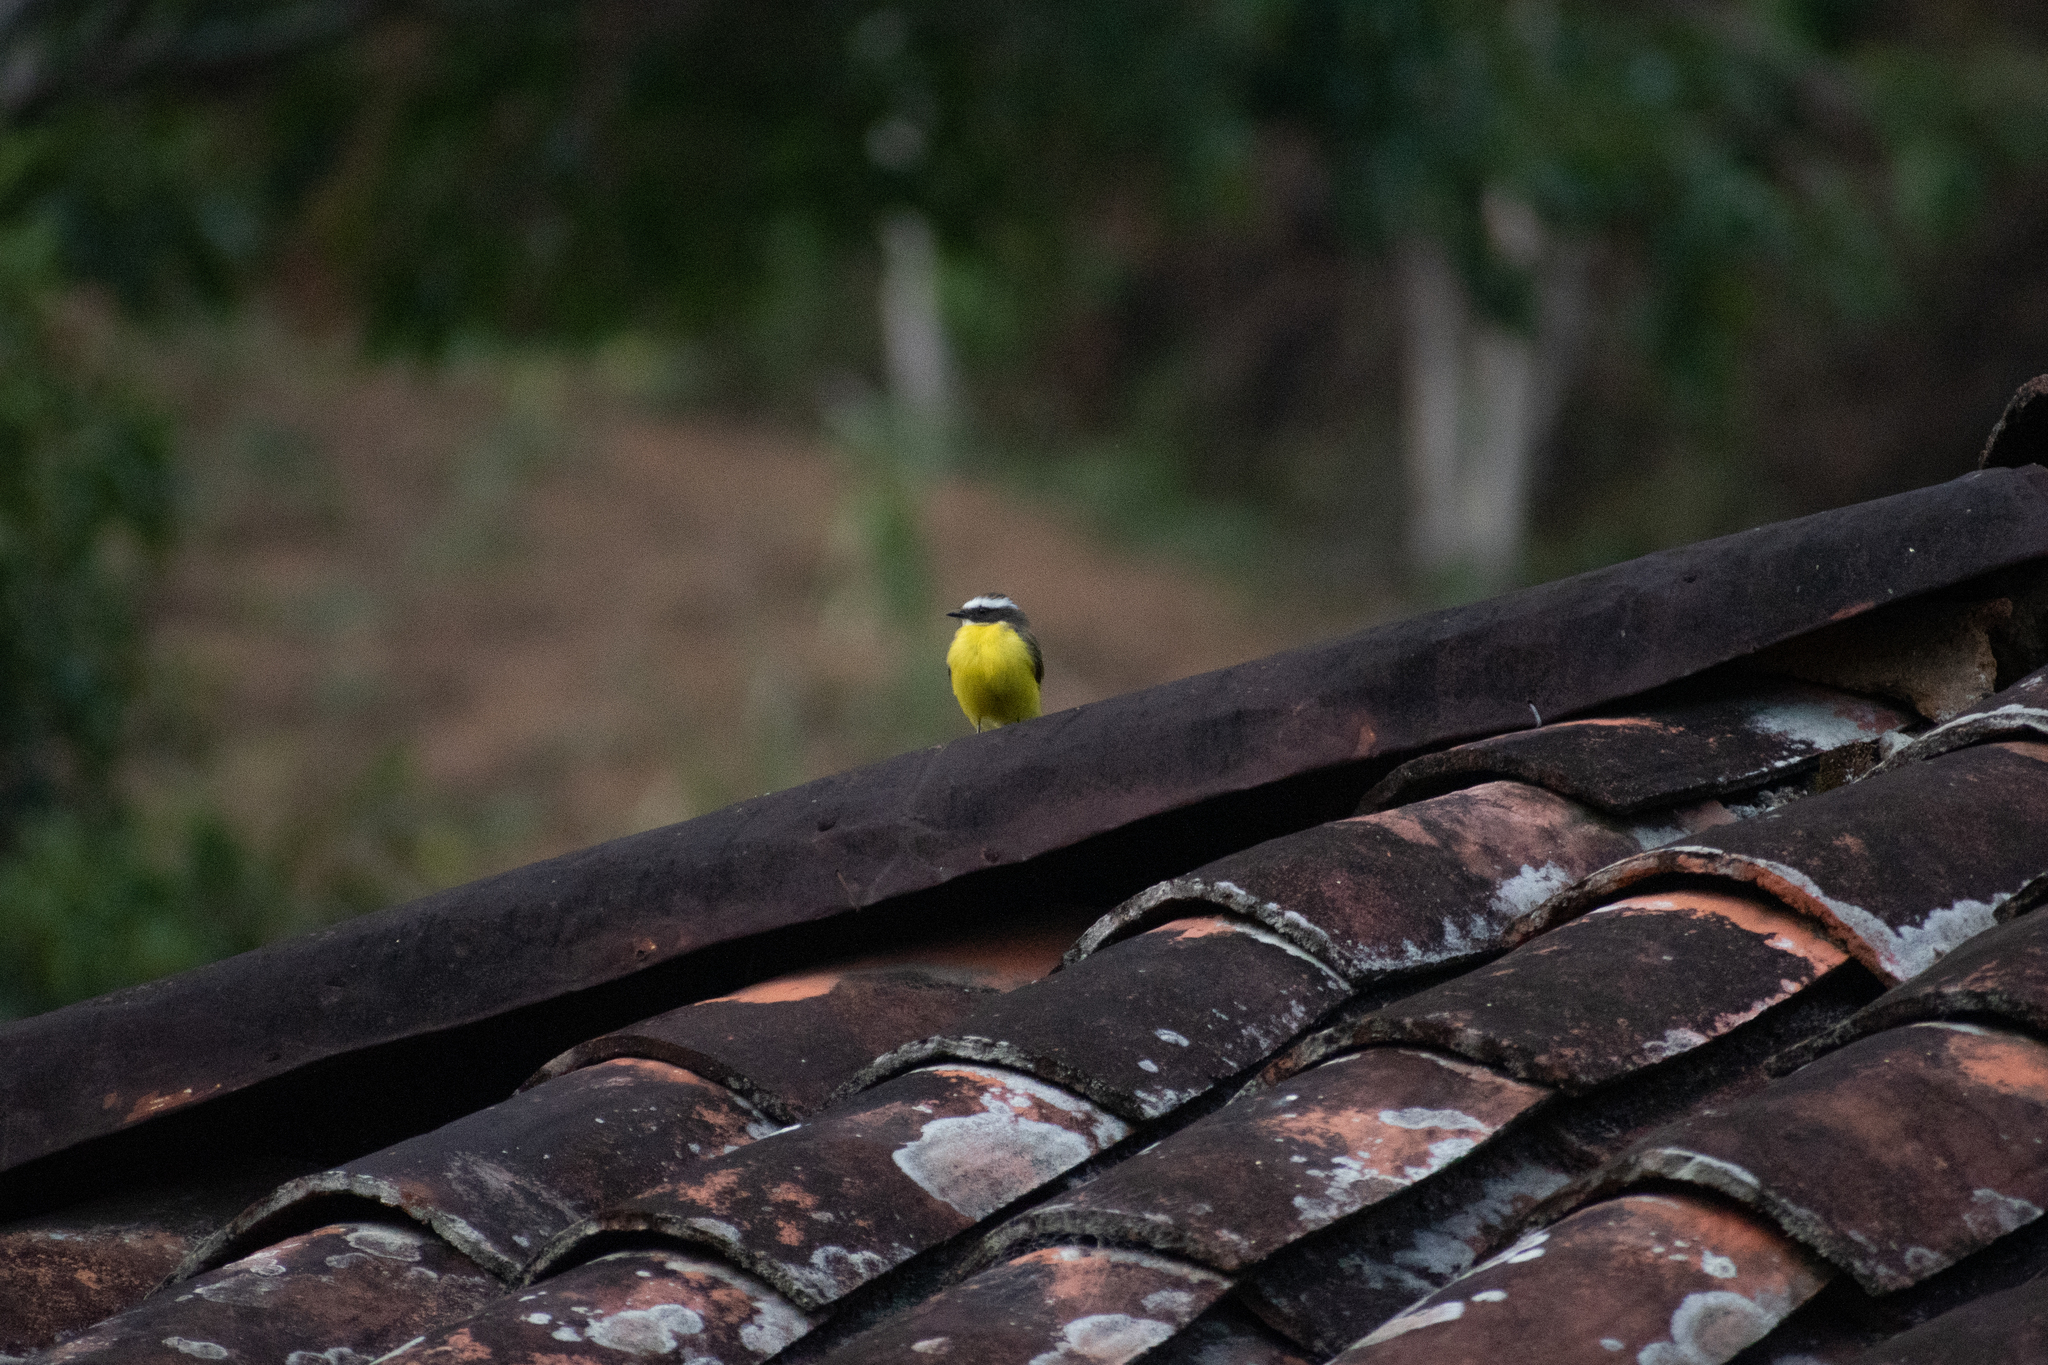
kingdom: Animalia
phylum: Chordata
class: Aves
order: Passeriformes
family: Tyrannidae
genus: Myiozetetes
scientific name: Myiozetetes similis
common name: Social flycatcher
